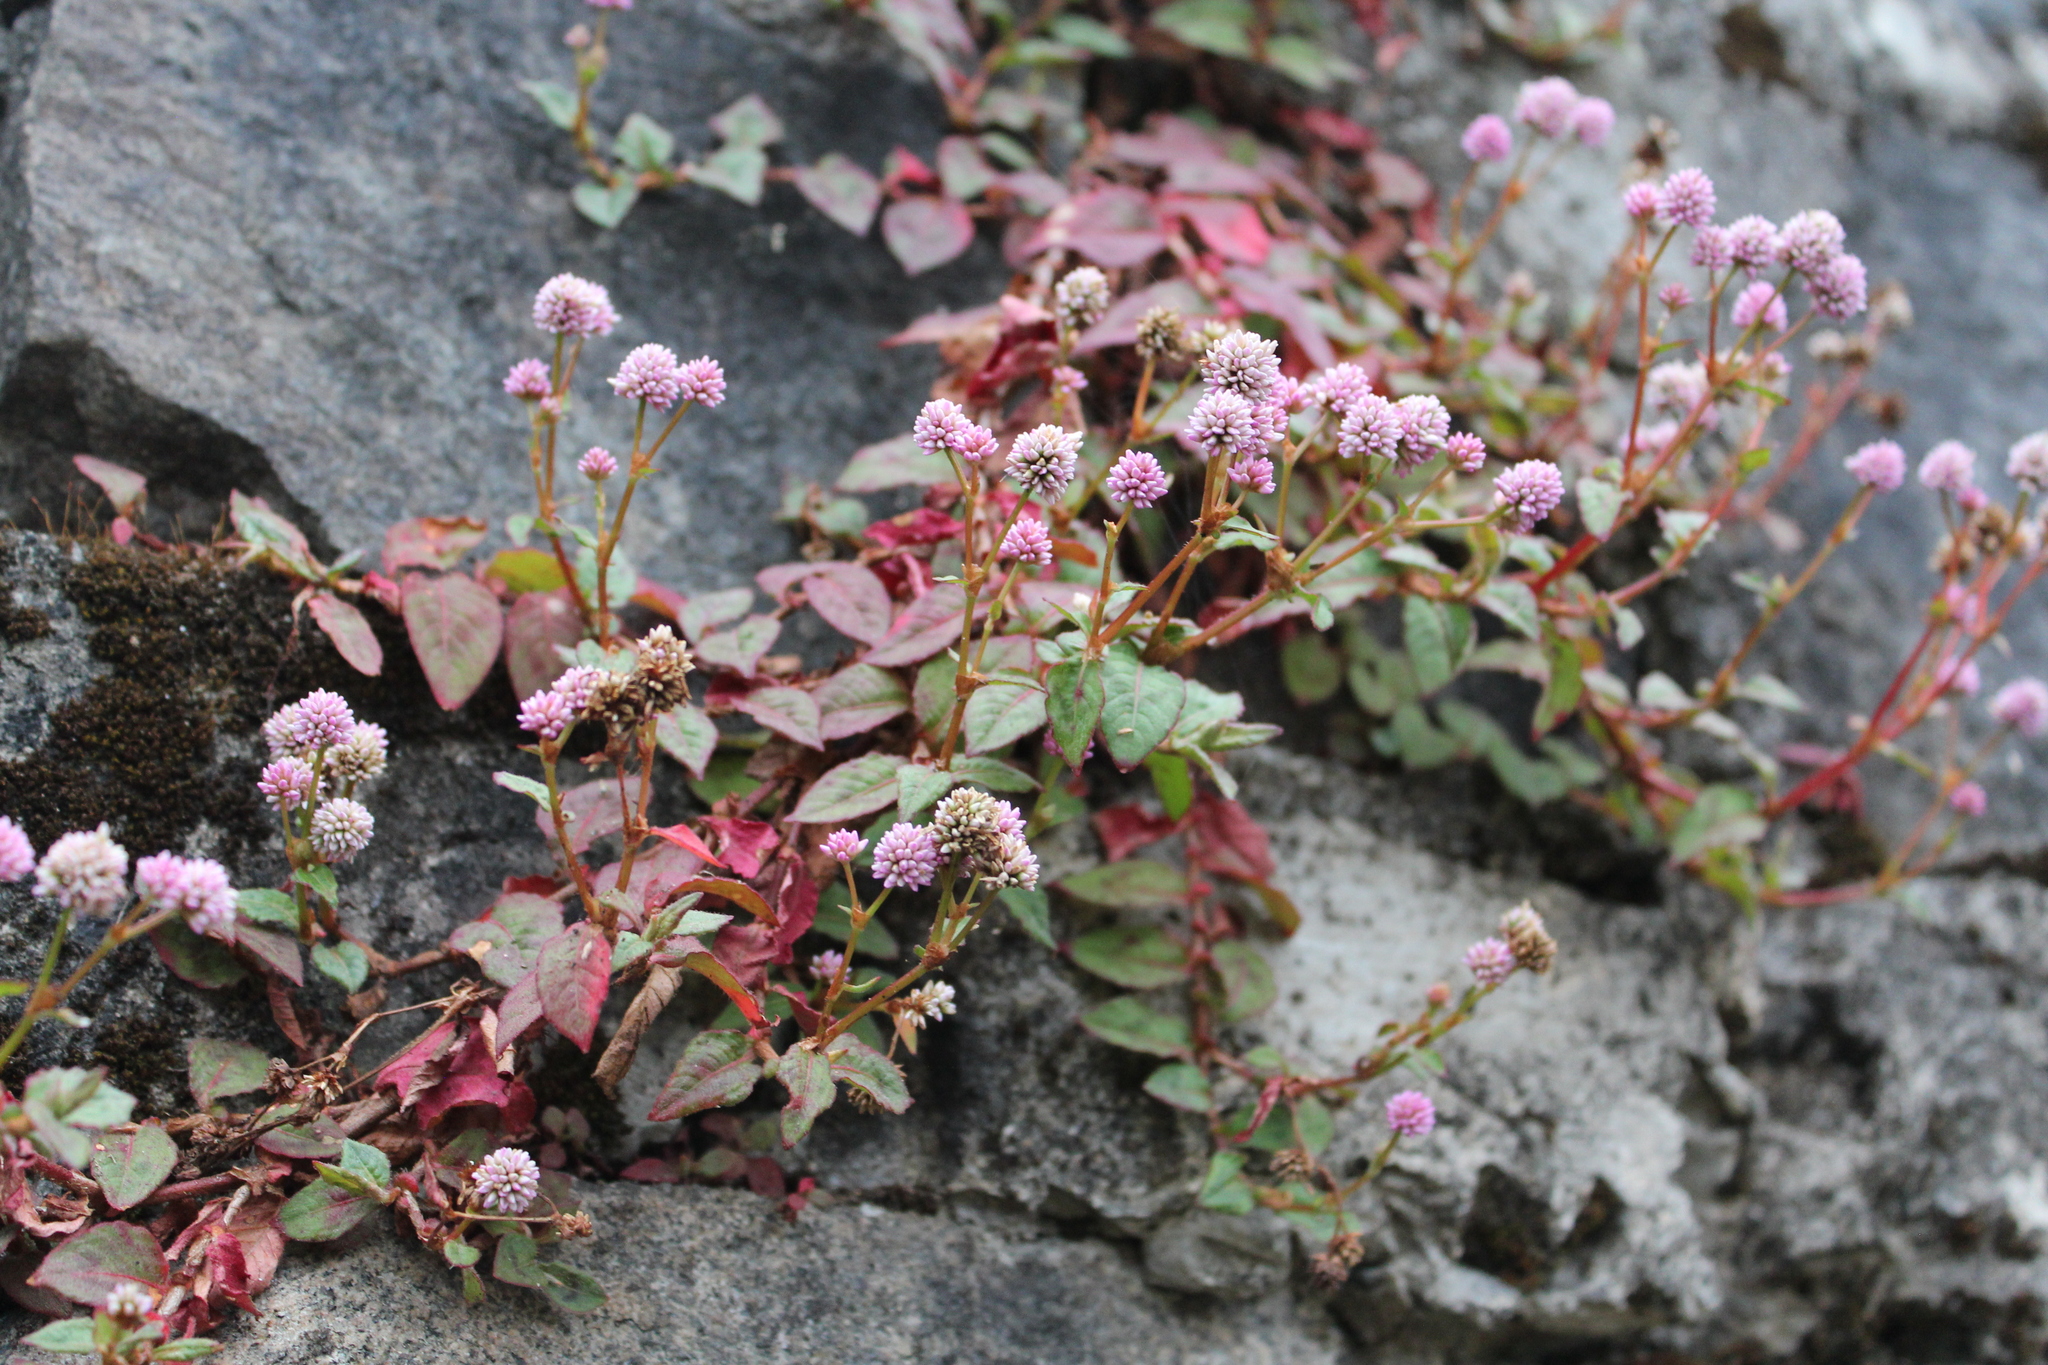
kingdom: Plantae
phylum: Tracheophyta
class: Magnoliopsida
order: Caryophyllales
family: Polygonaceae
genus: Persicaria
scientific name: Persicaria capitata
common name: Pinkhead smartweed
